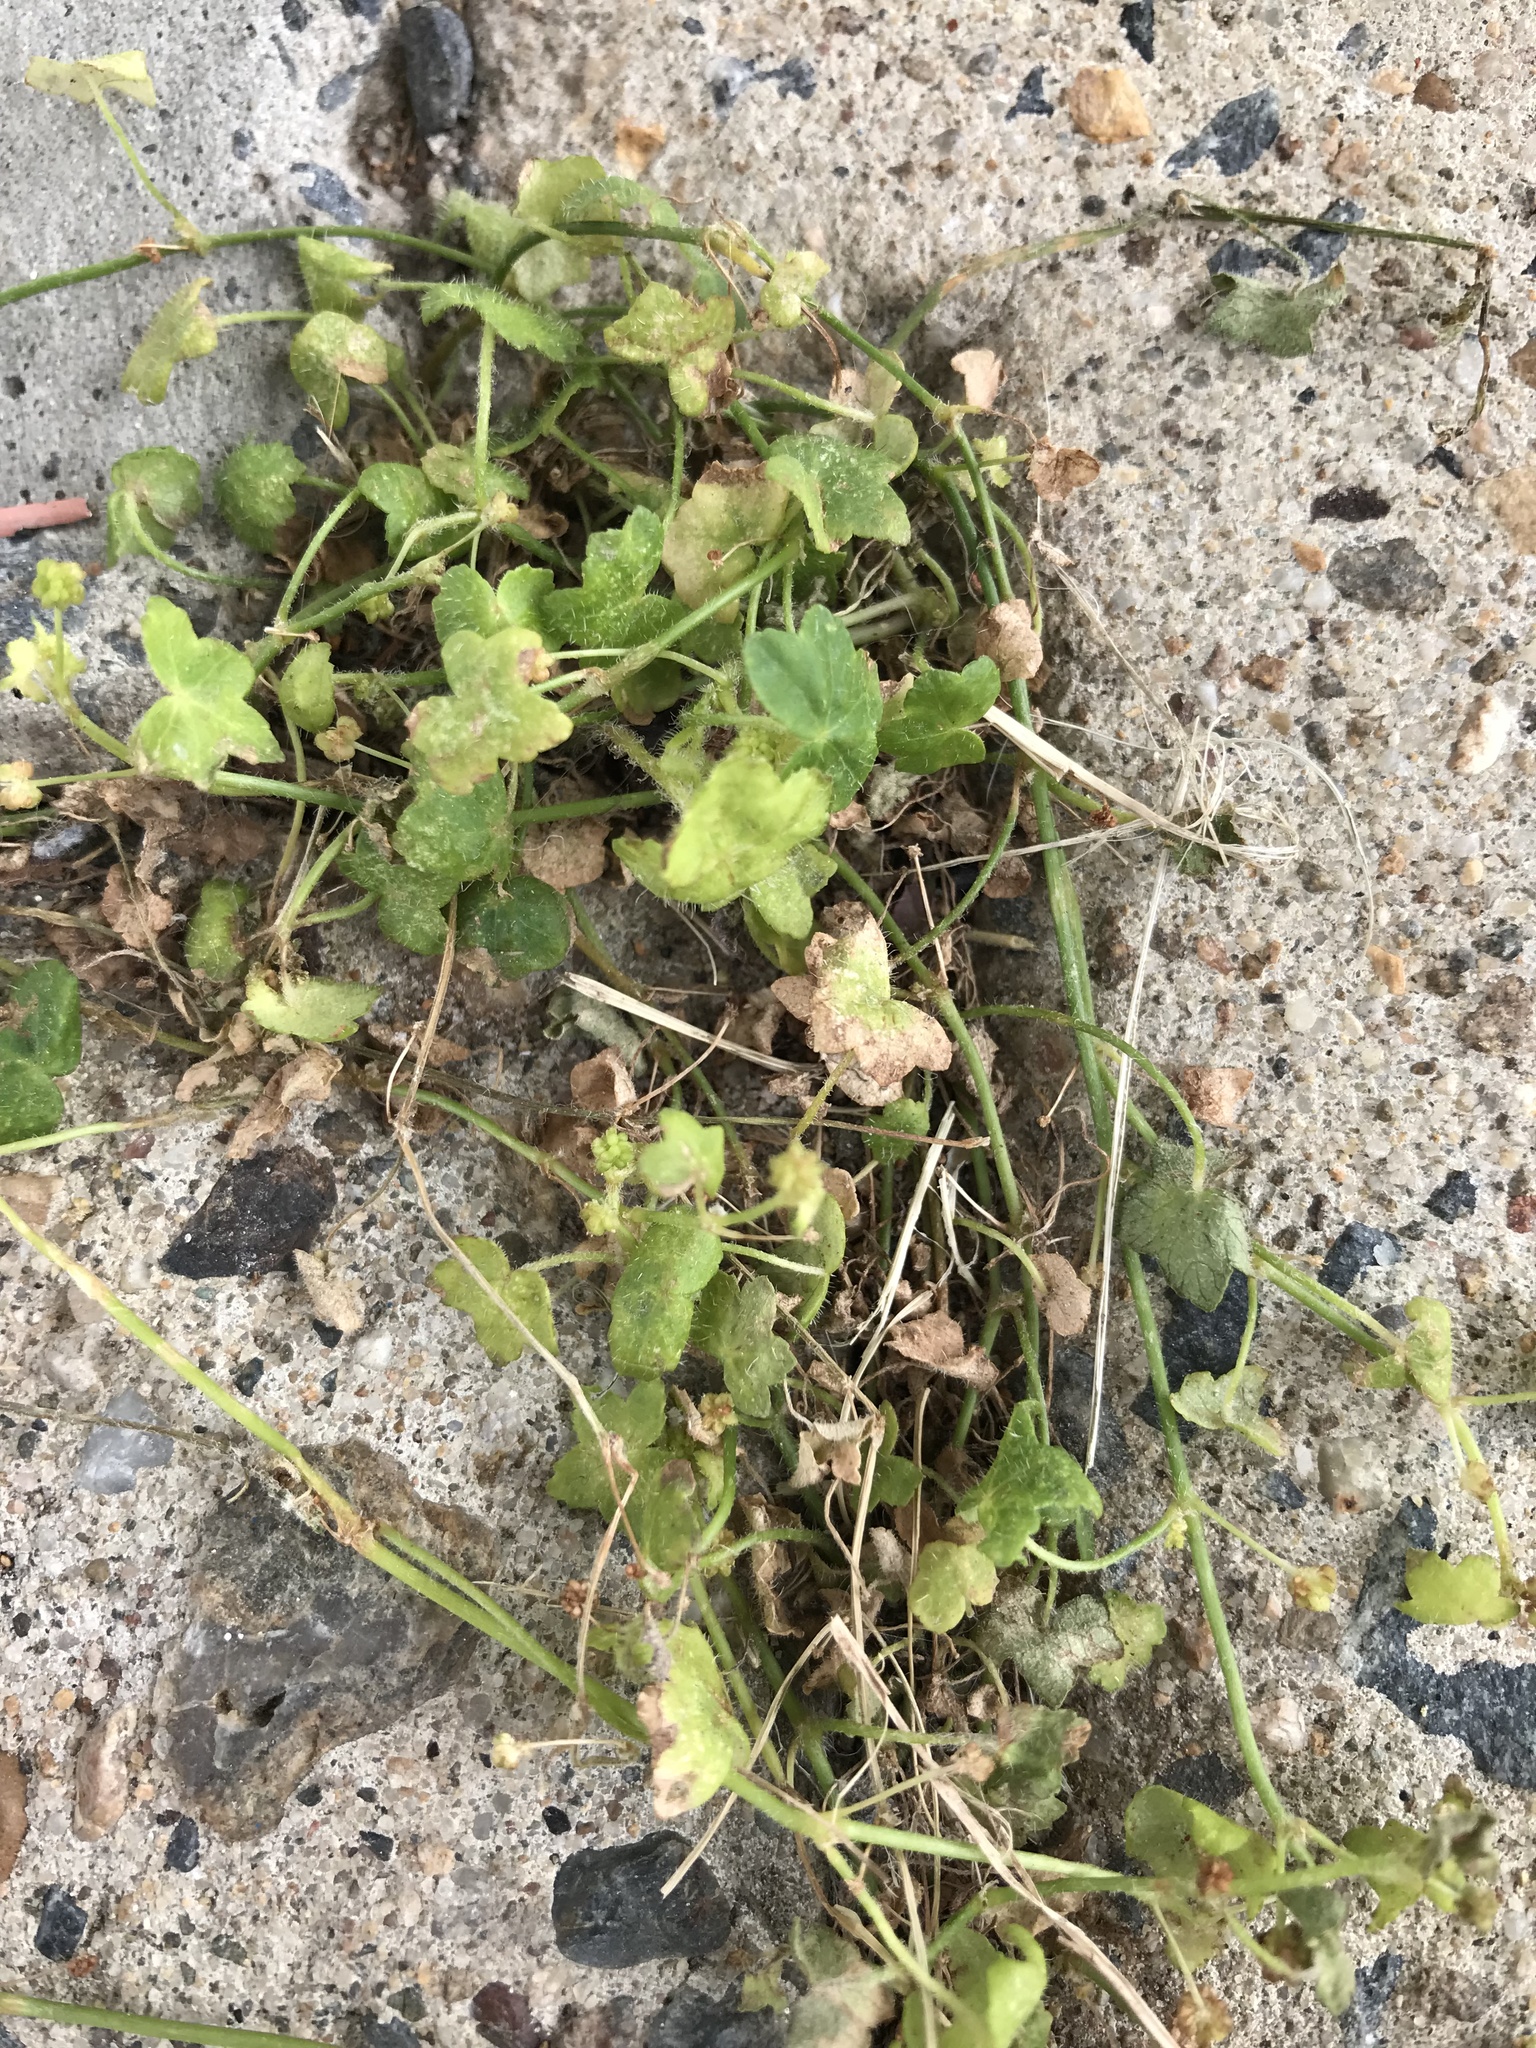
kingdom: Plantae
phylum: Tracheophyta
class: Magnoliopsida
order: Apiales
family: Araliaceae
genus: Hydrocotyle
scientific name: Hydrocotyle acutiloba
